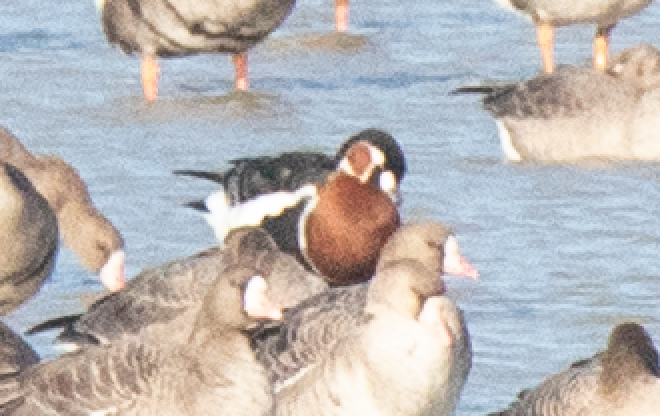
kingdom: Animalia
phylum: Chordata
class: Aves
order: Anseriformes
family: Anatidae
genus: Branta
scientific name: Branta ruficollis
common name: Red-breasted goose
